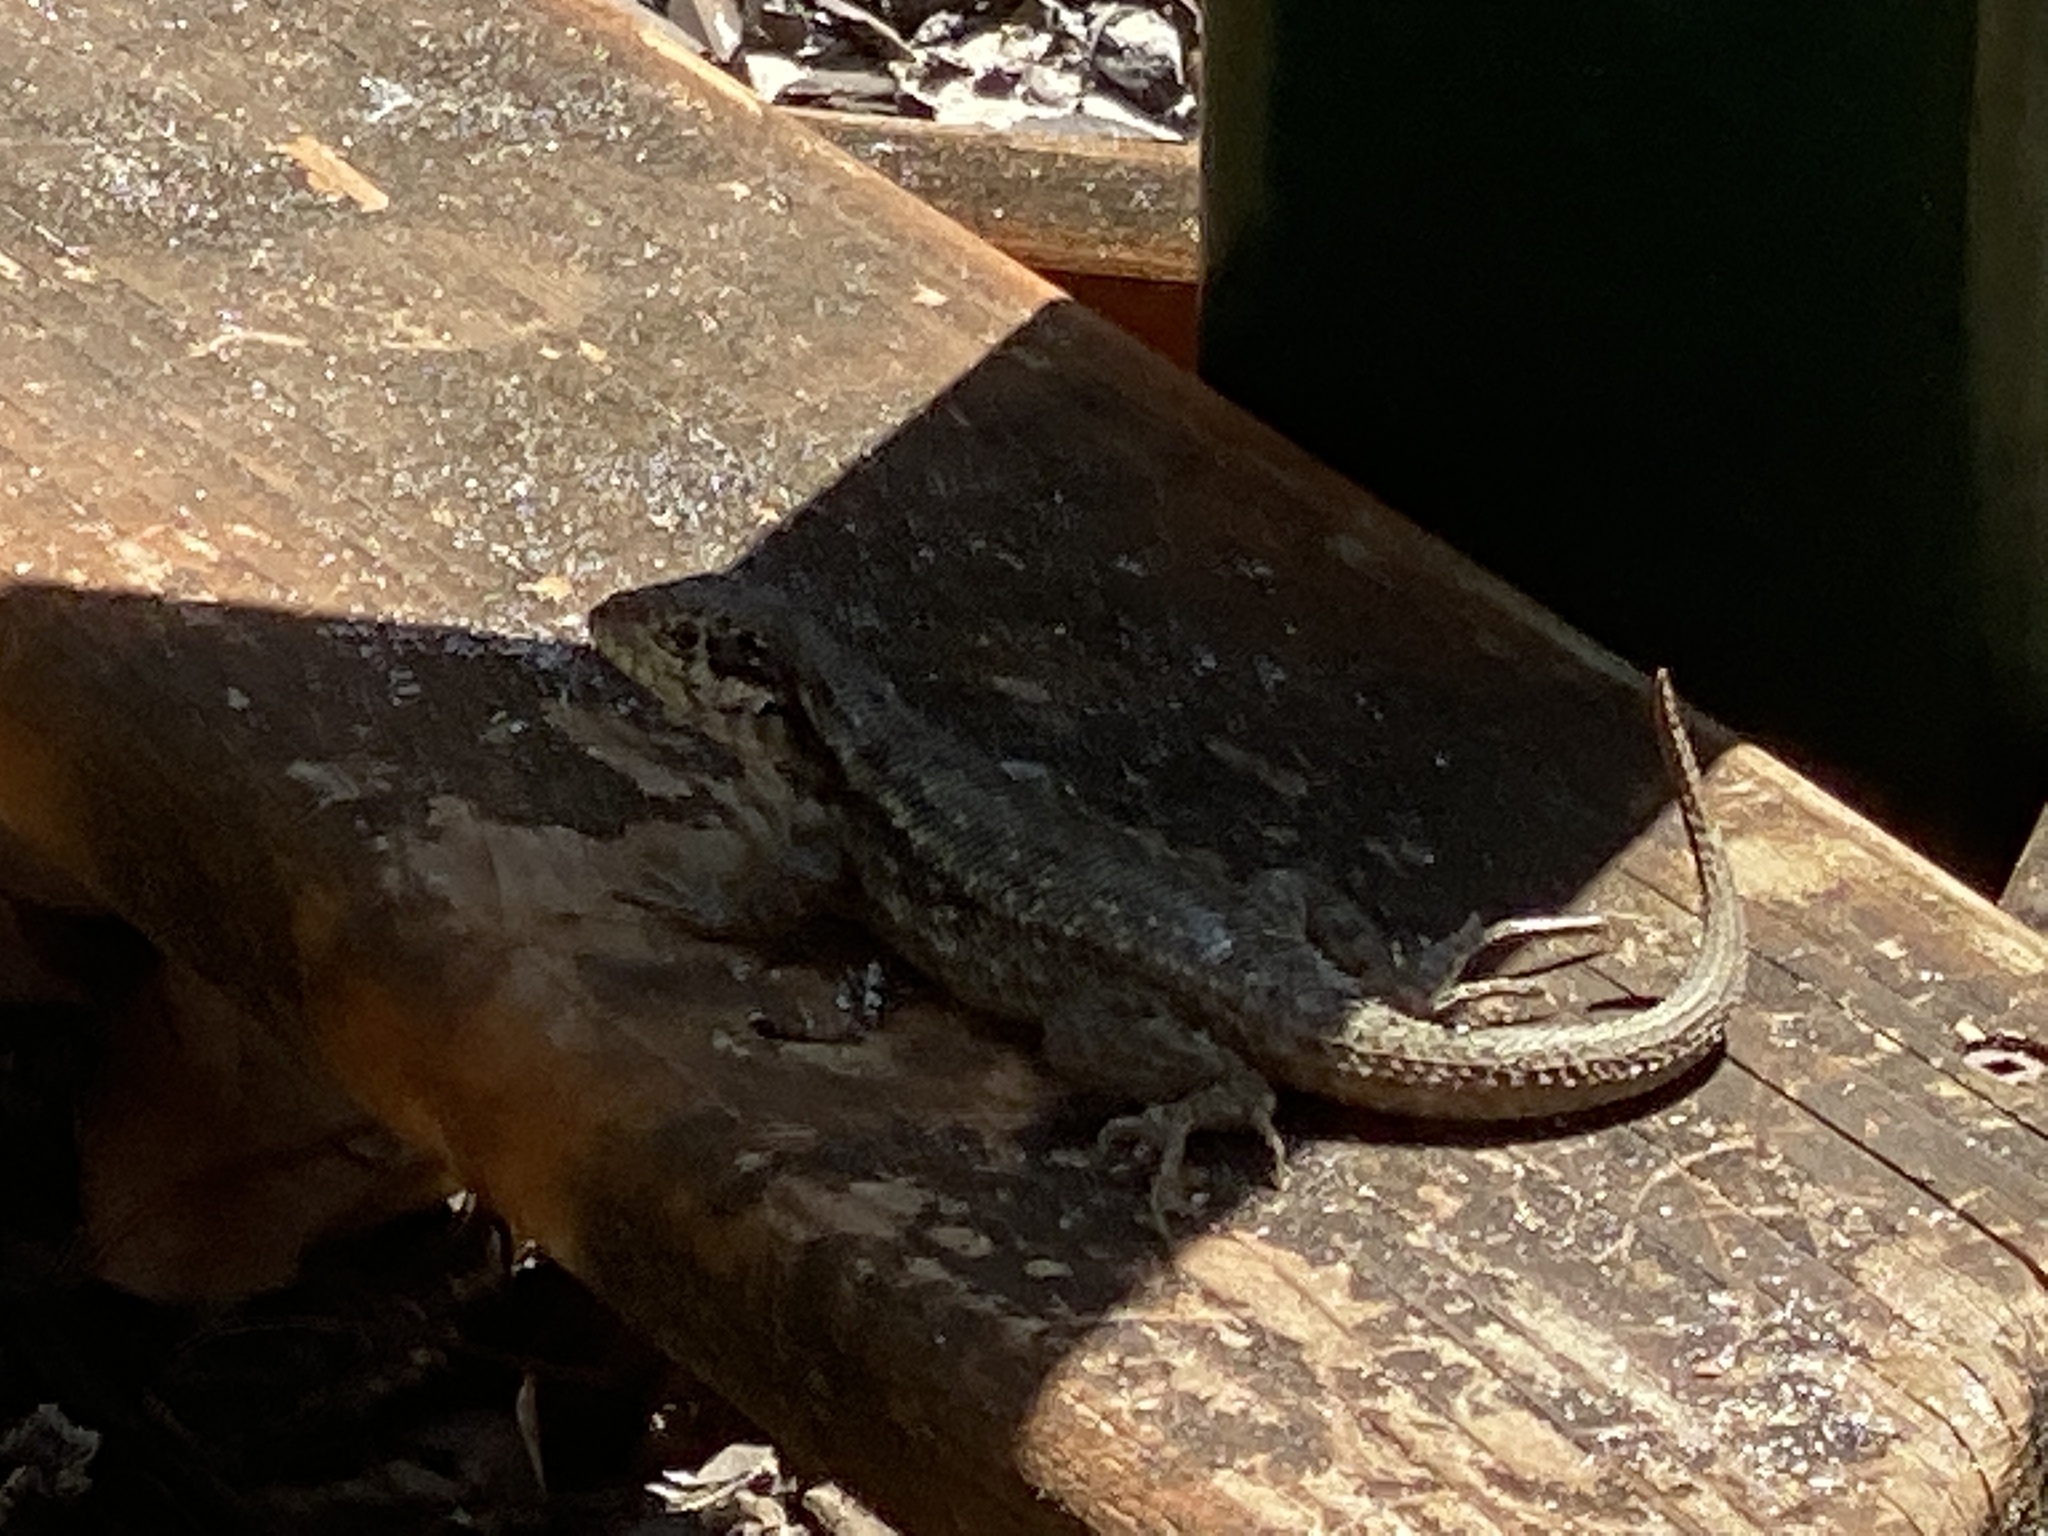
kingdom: Animalia
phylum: Chordata
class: Squamata
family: Leiocephalidae
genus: Leiocephalus
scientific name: Leiocephalus carinatus
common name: Northern curly-tailed lizard
